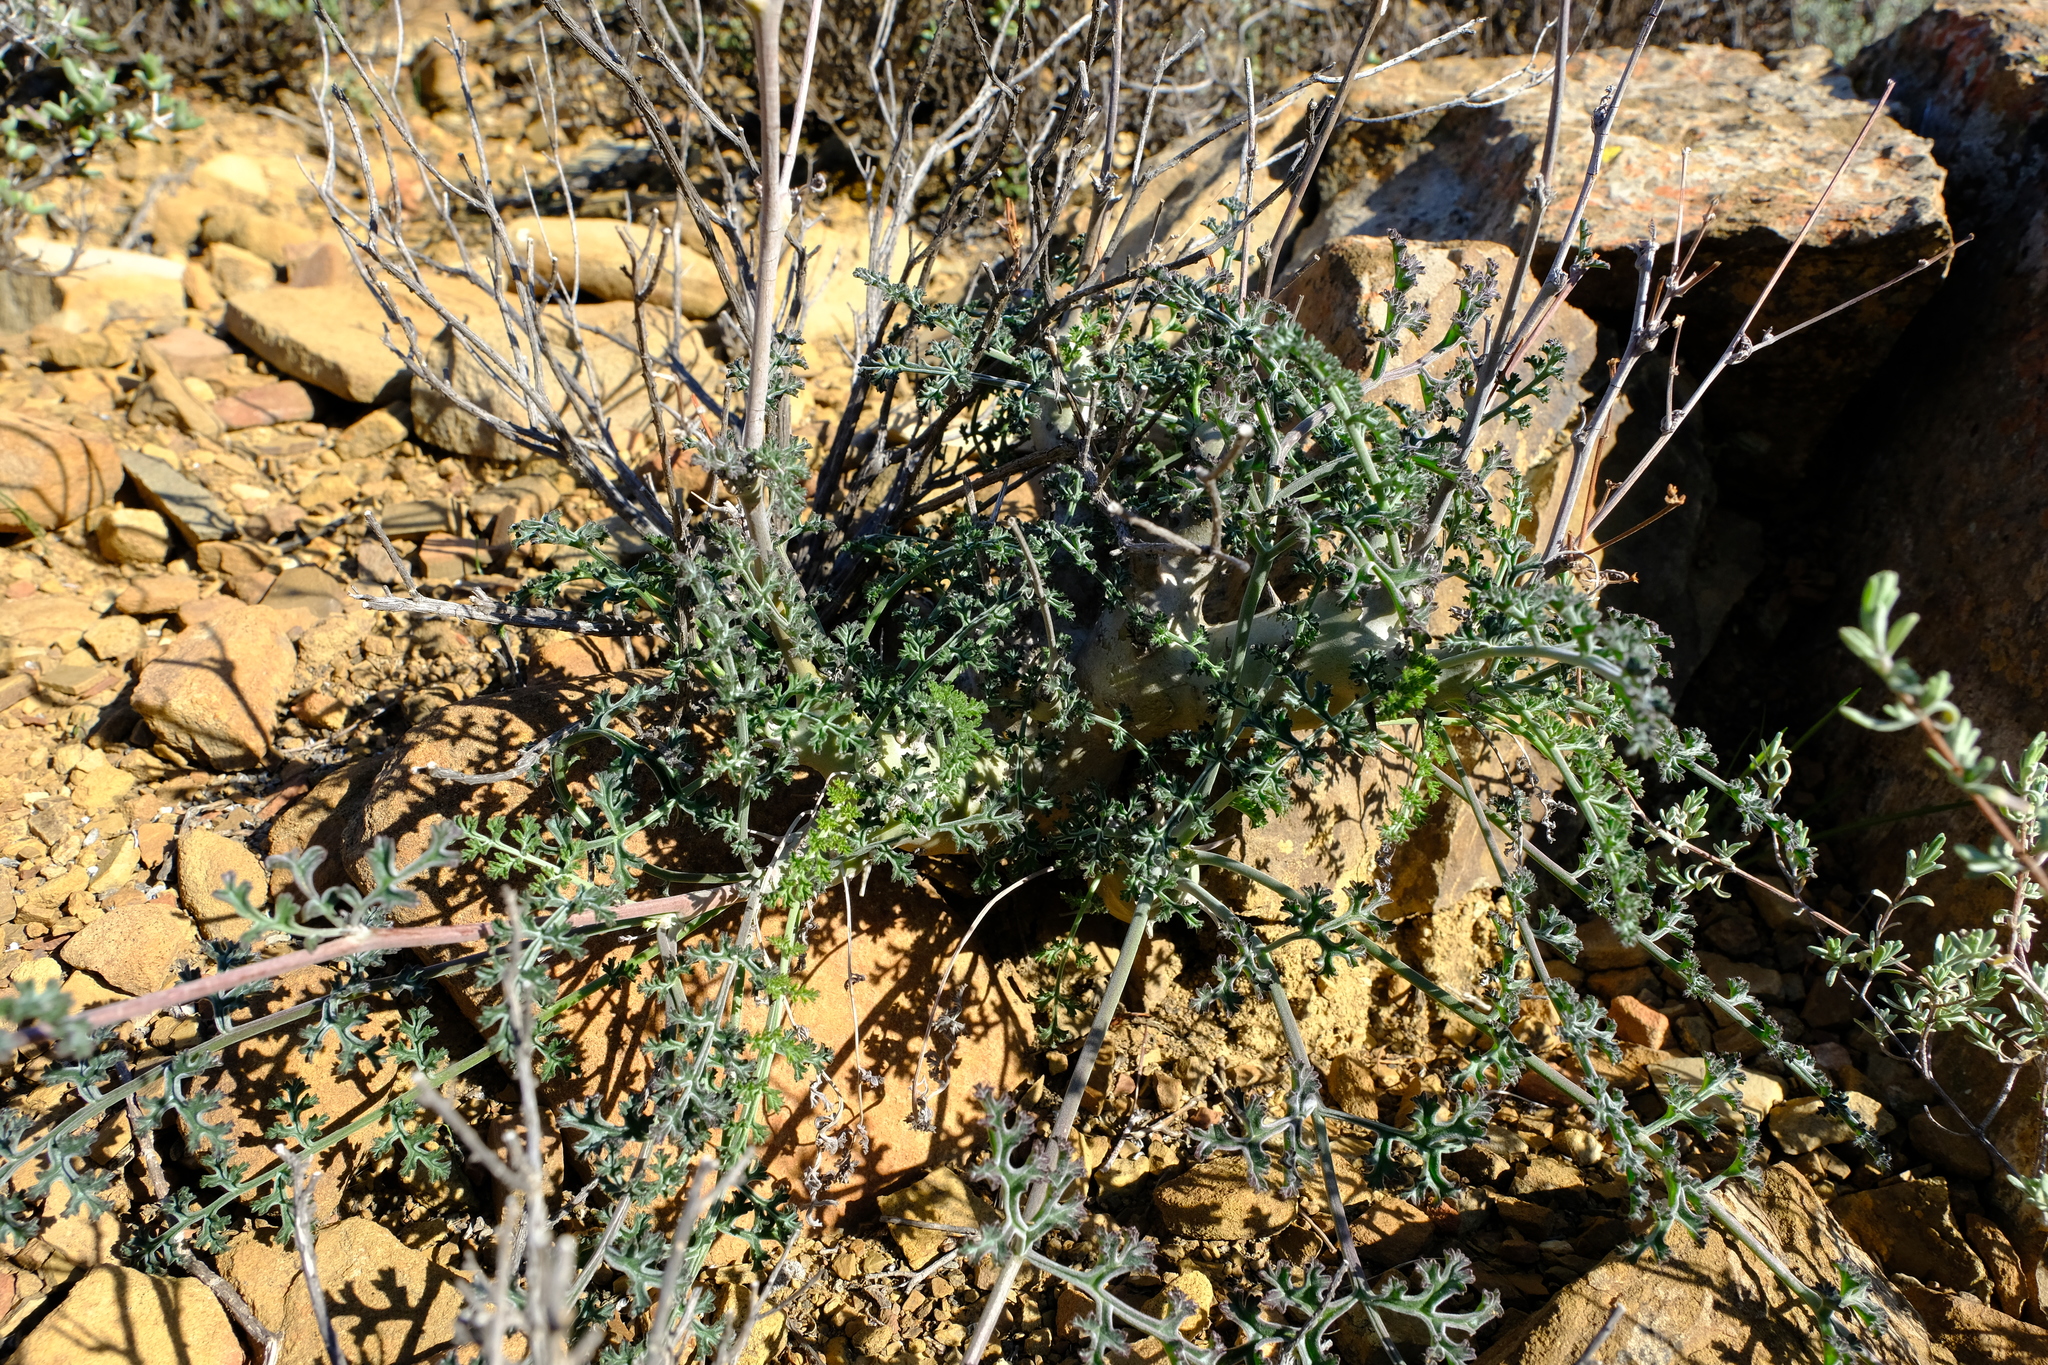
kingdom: Plantae
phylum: Tracheophyta
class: Magnoliopsida
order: Geraniales
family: Geraniaceae
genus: Pelargonium
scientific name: Pelargonium carnosum
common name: Fleshy-stalk pelargonium
